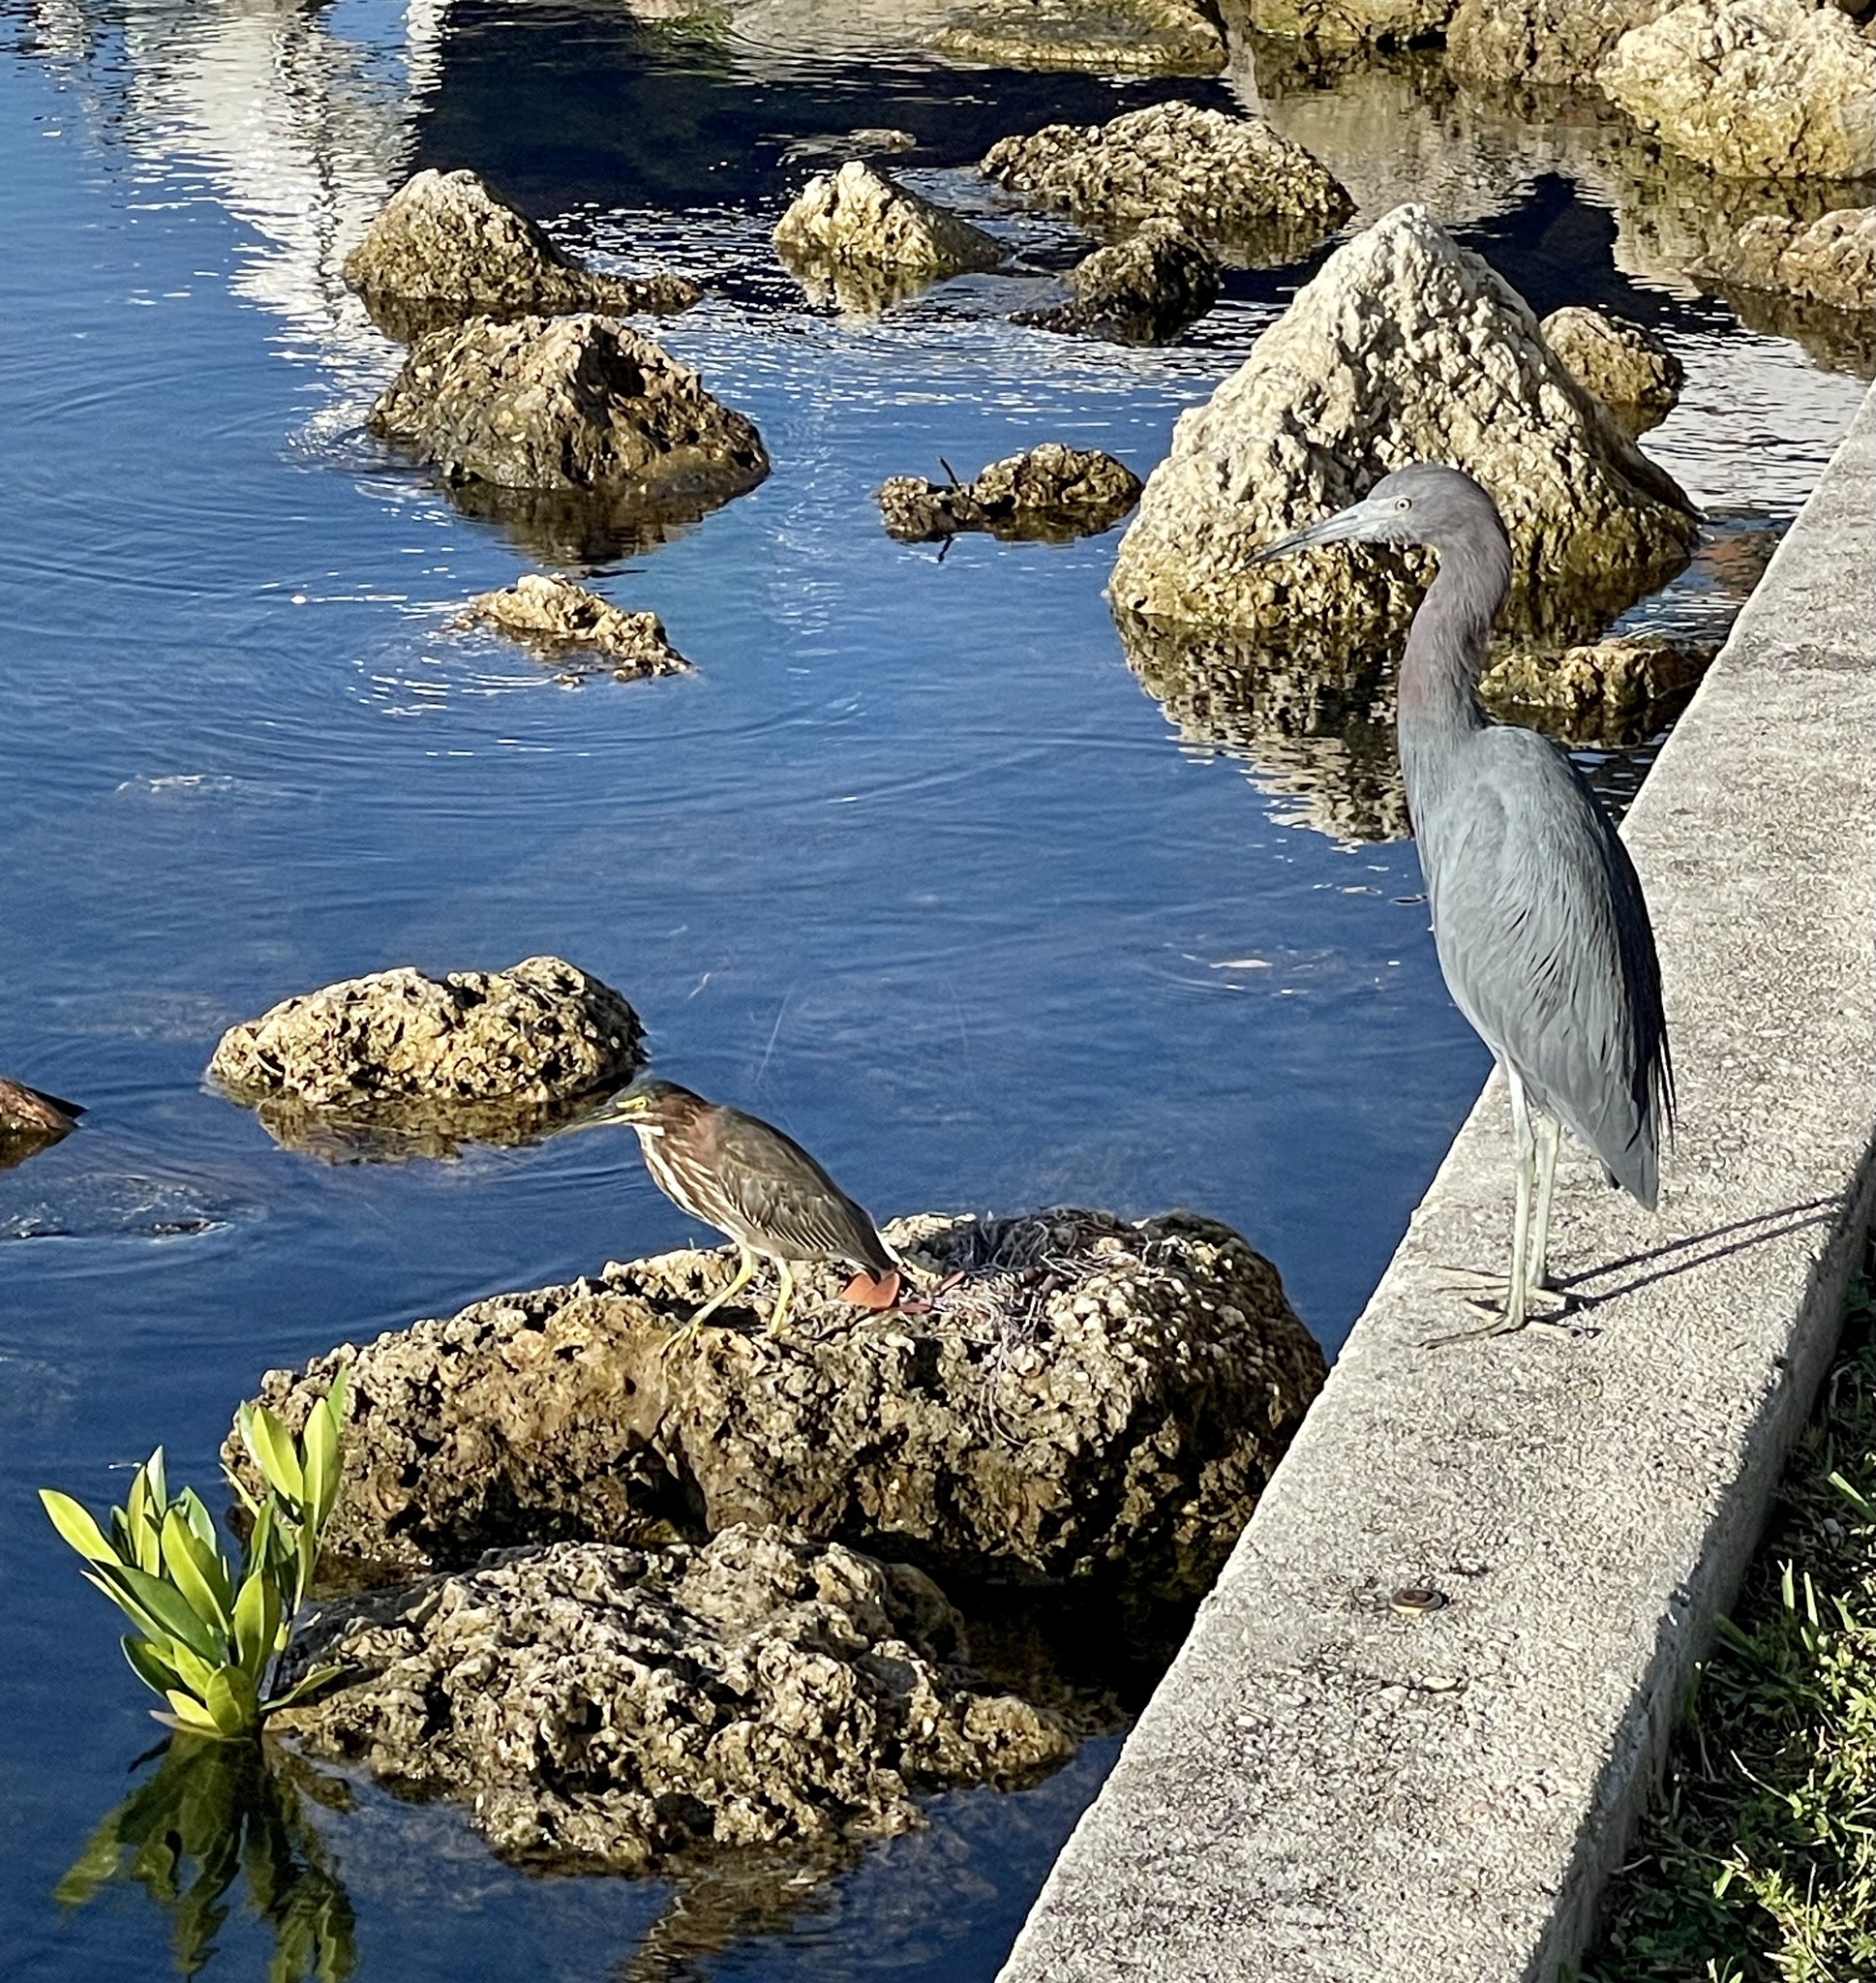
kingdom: Animalia
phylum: Chordata
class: Aves
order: Pelecaniformes
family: Ardeidae
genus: Butorides
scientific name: Butorides virescens
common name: Green heron
